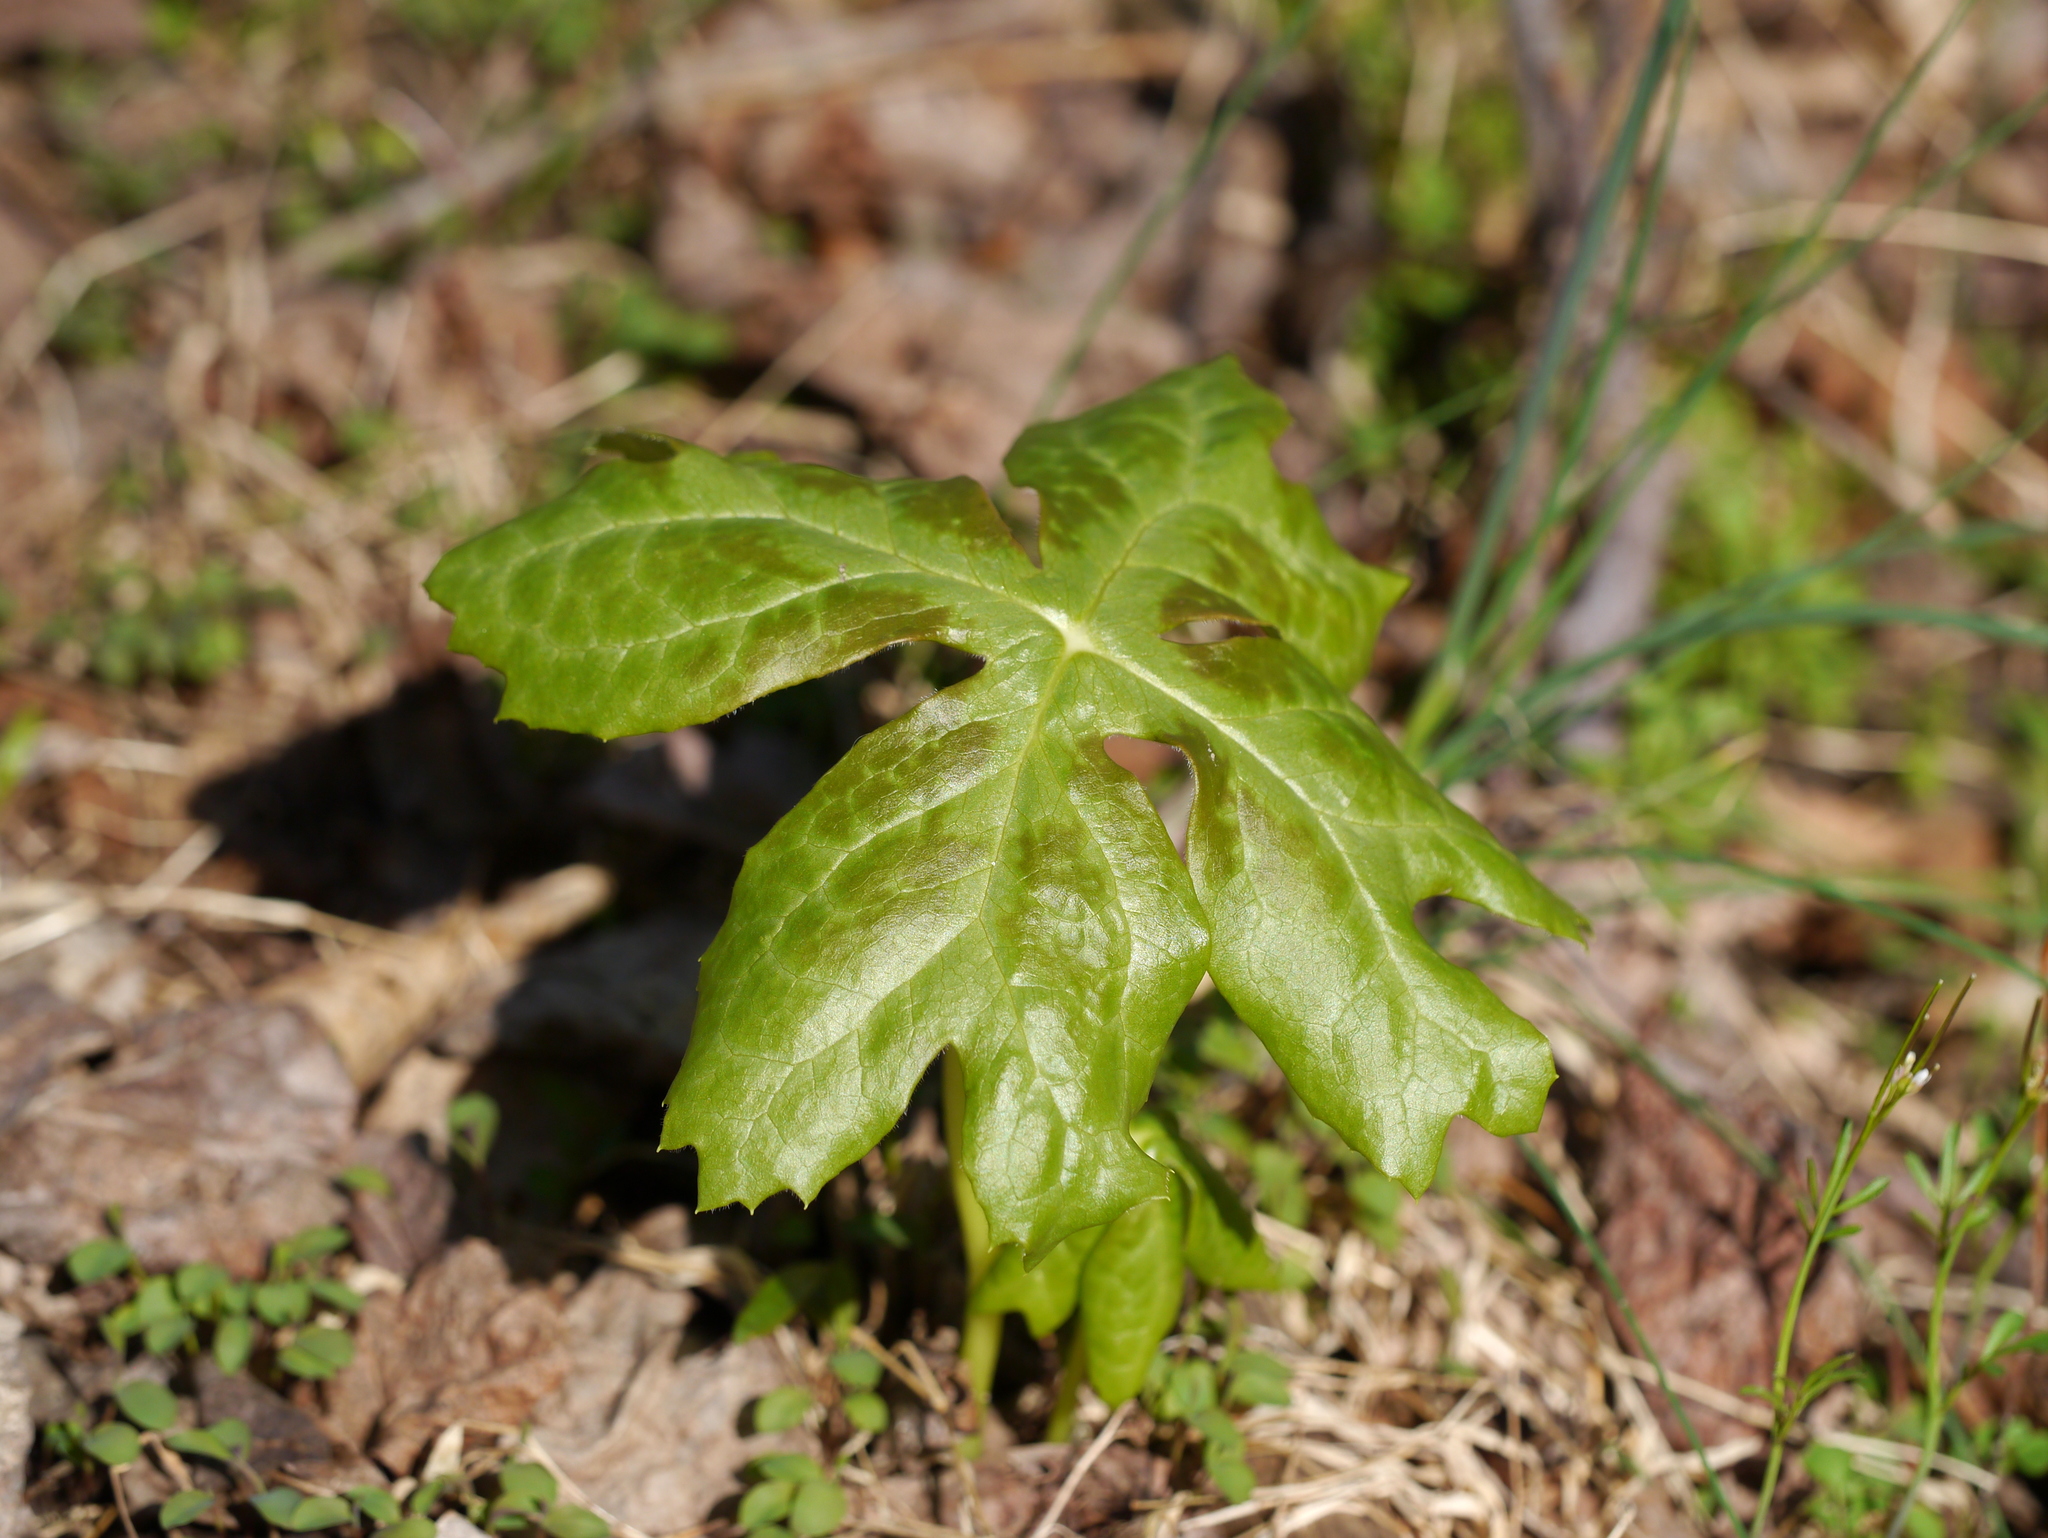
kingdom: Plantae
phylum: Tracheophyta
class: Magnoliopsida
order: Ranunculales
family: Berberidaceae
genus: Podophyllum
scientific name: Podophyllum peltatum
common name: Wild mandrake
